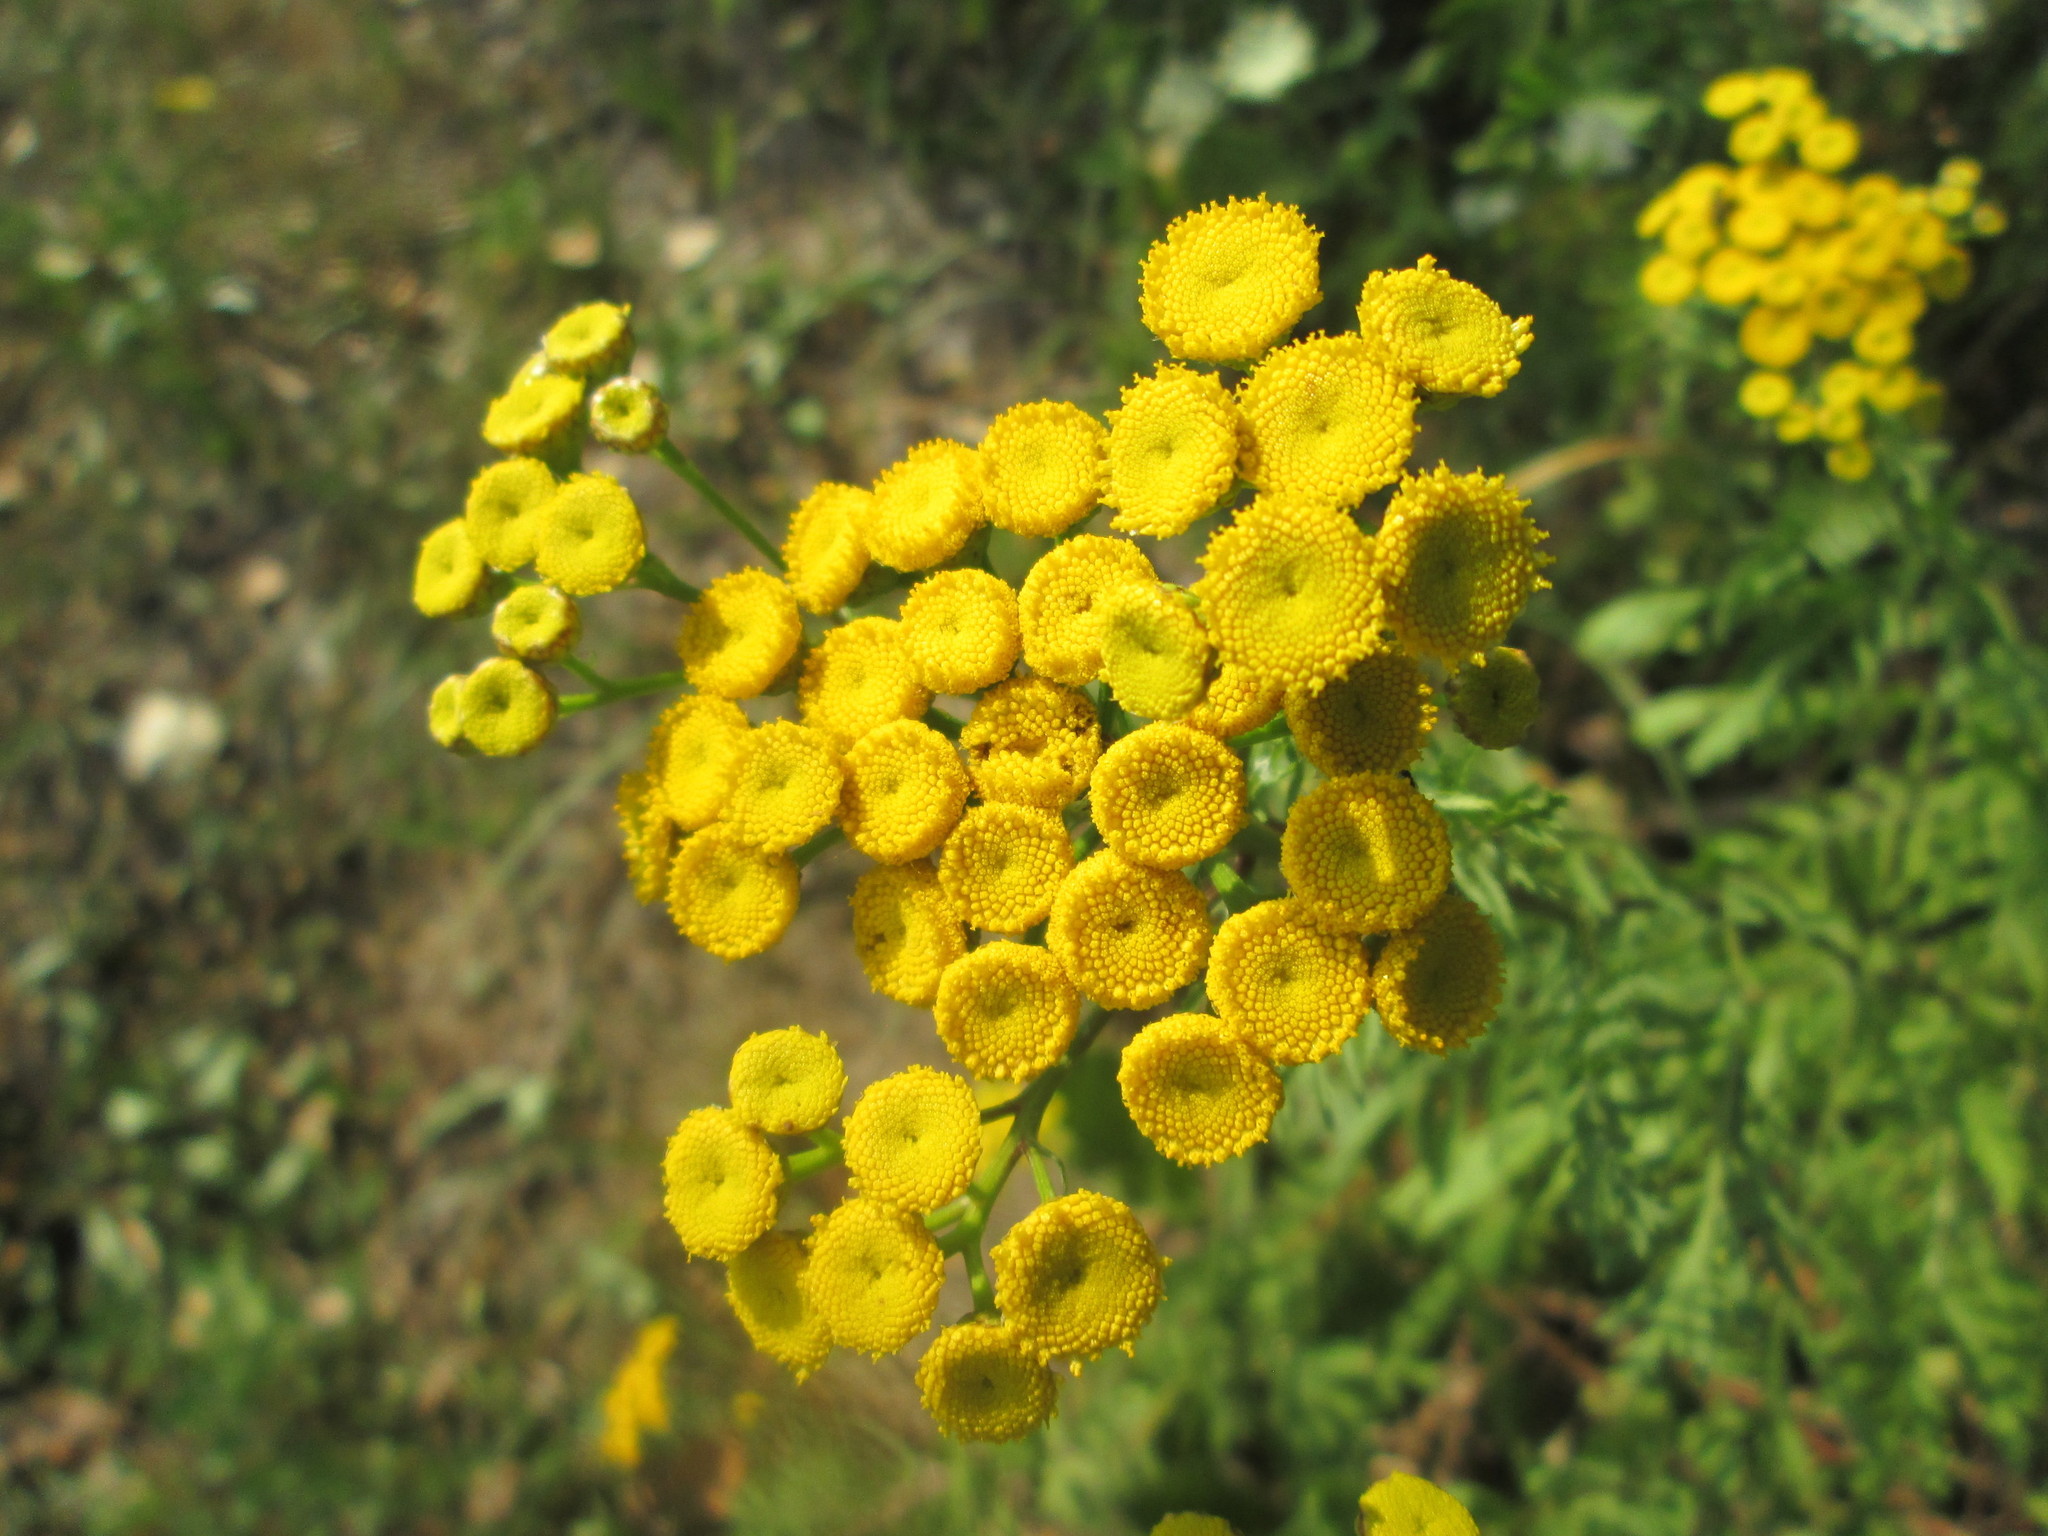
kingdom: Plantae
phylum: Tracheophyta
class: Magnoliopsida
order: Asterales
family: Asteraceae
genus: Tanacetum
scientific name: Tanacetum vulgare
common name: Common tansy
